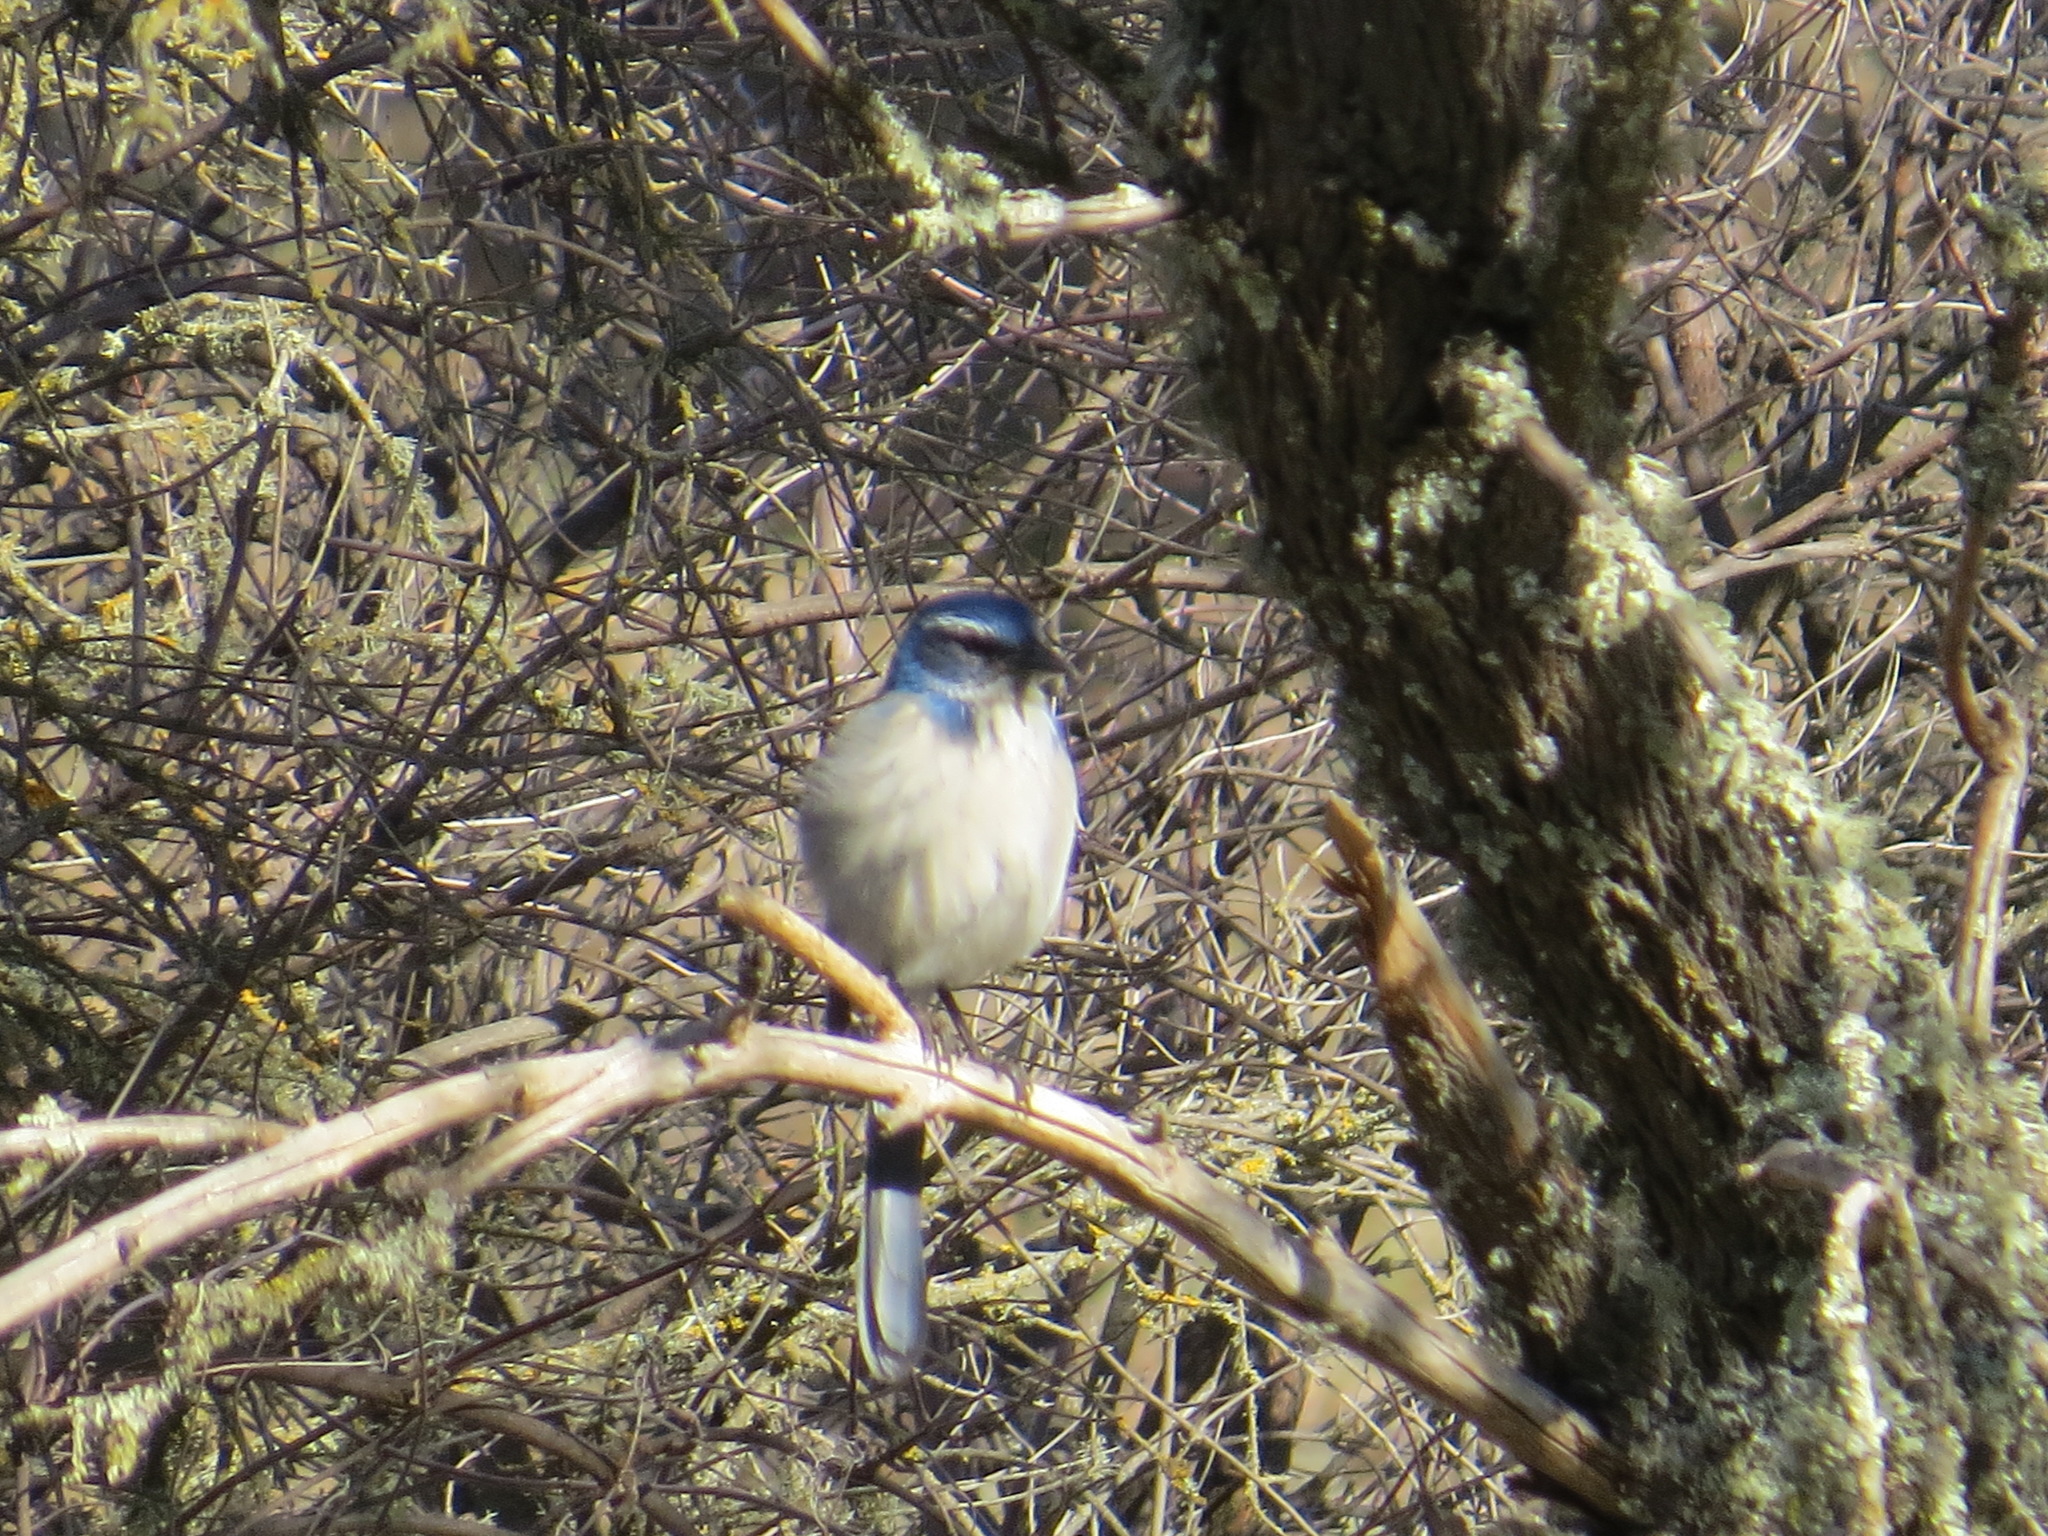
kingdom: Animalia
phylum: Chordata
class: Aves
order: Passeriformes
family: Corvidae
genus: Aphelocoma
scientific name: Aphelocoma californica
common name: California scrub-jay
